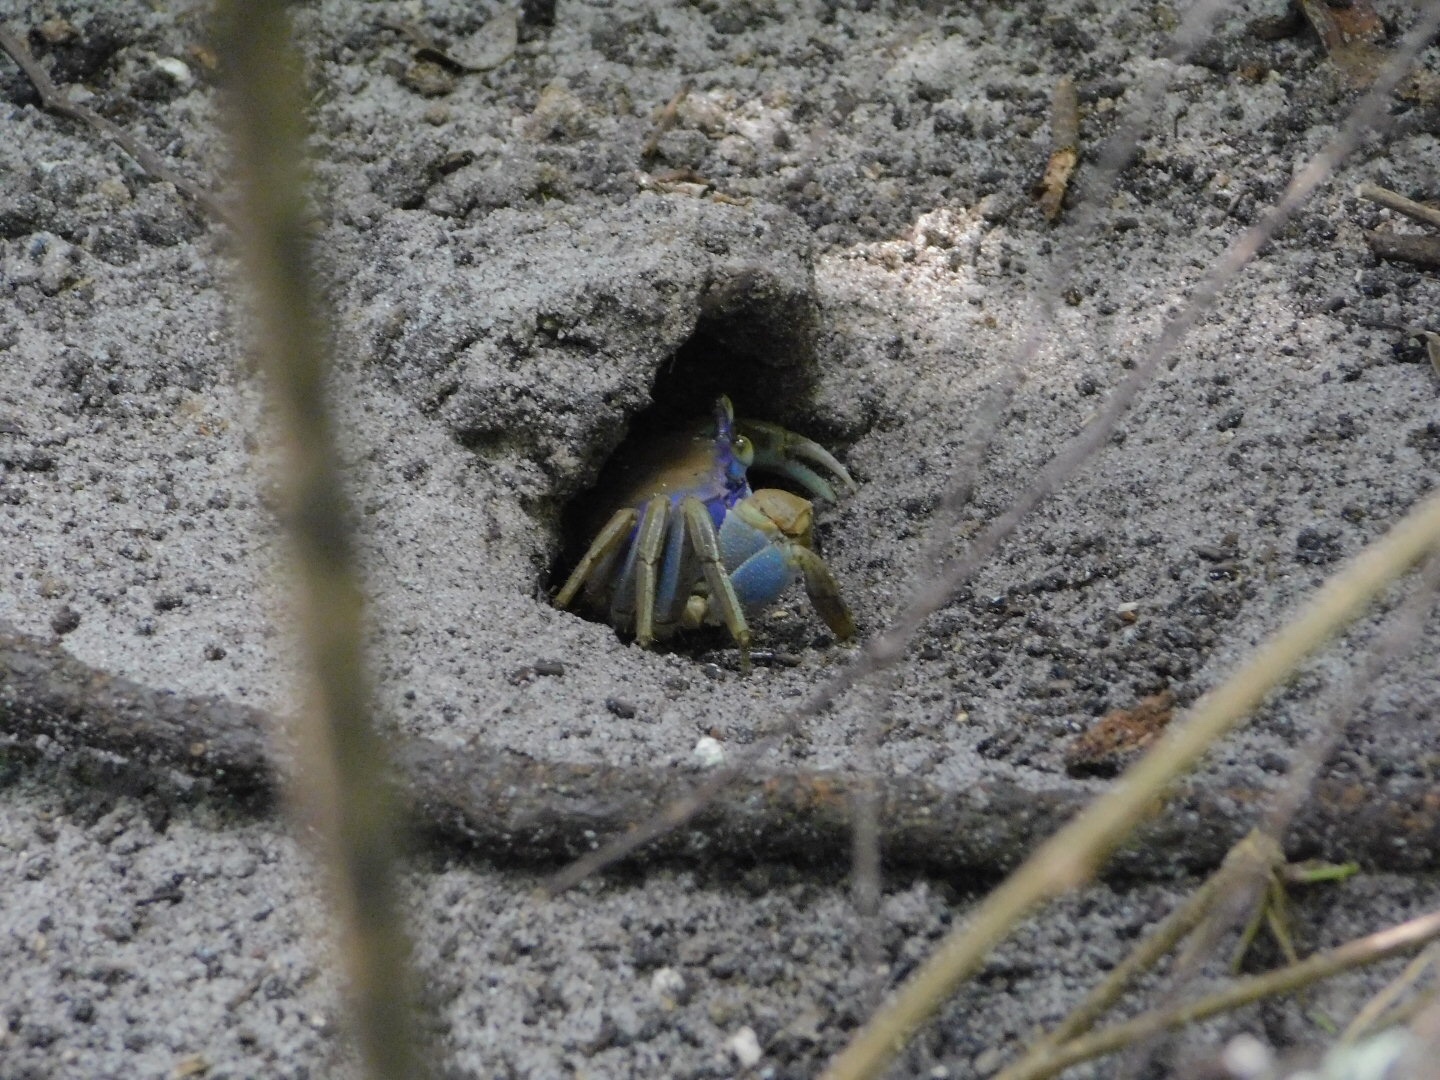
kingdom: Animalia
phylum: Arthropoda
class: Malacostraca
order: Decapoda
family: Gecarcinidae
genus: Cardisoma
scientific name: Cardisoma guanhumi
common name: Great land crab
